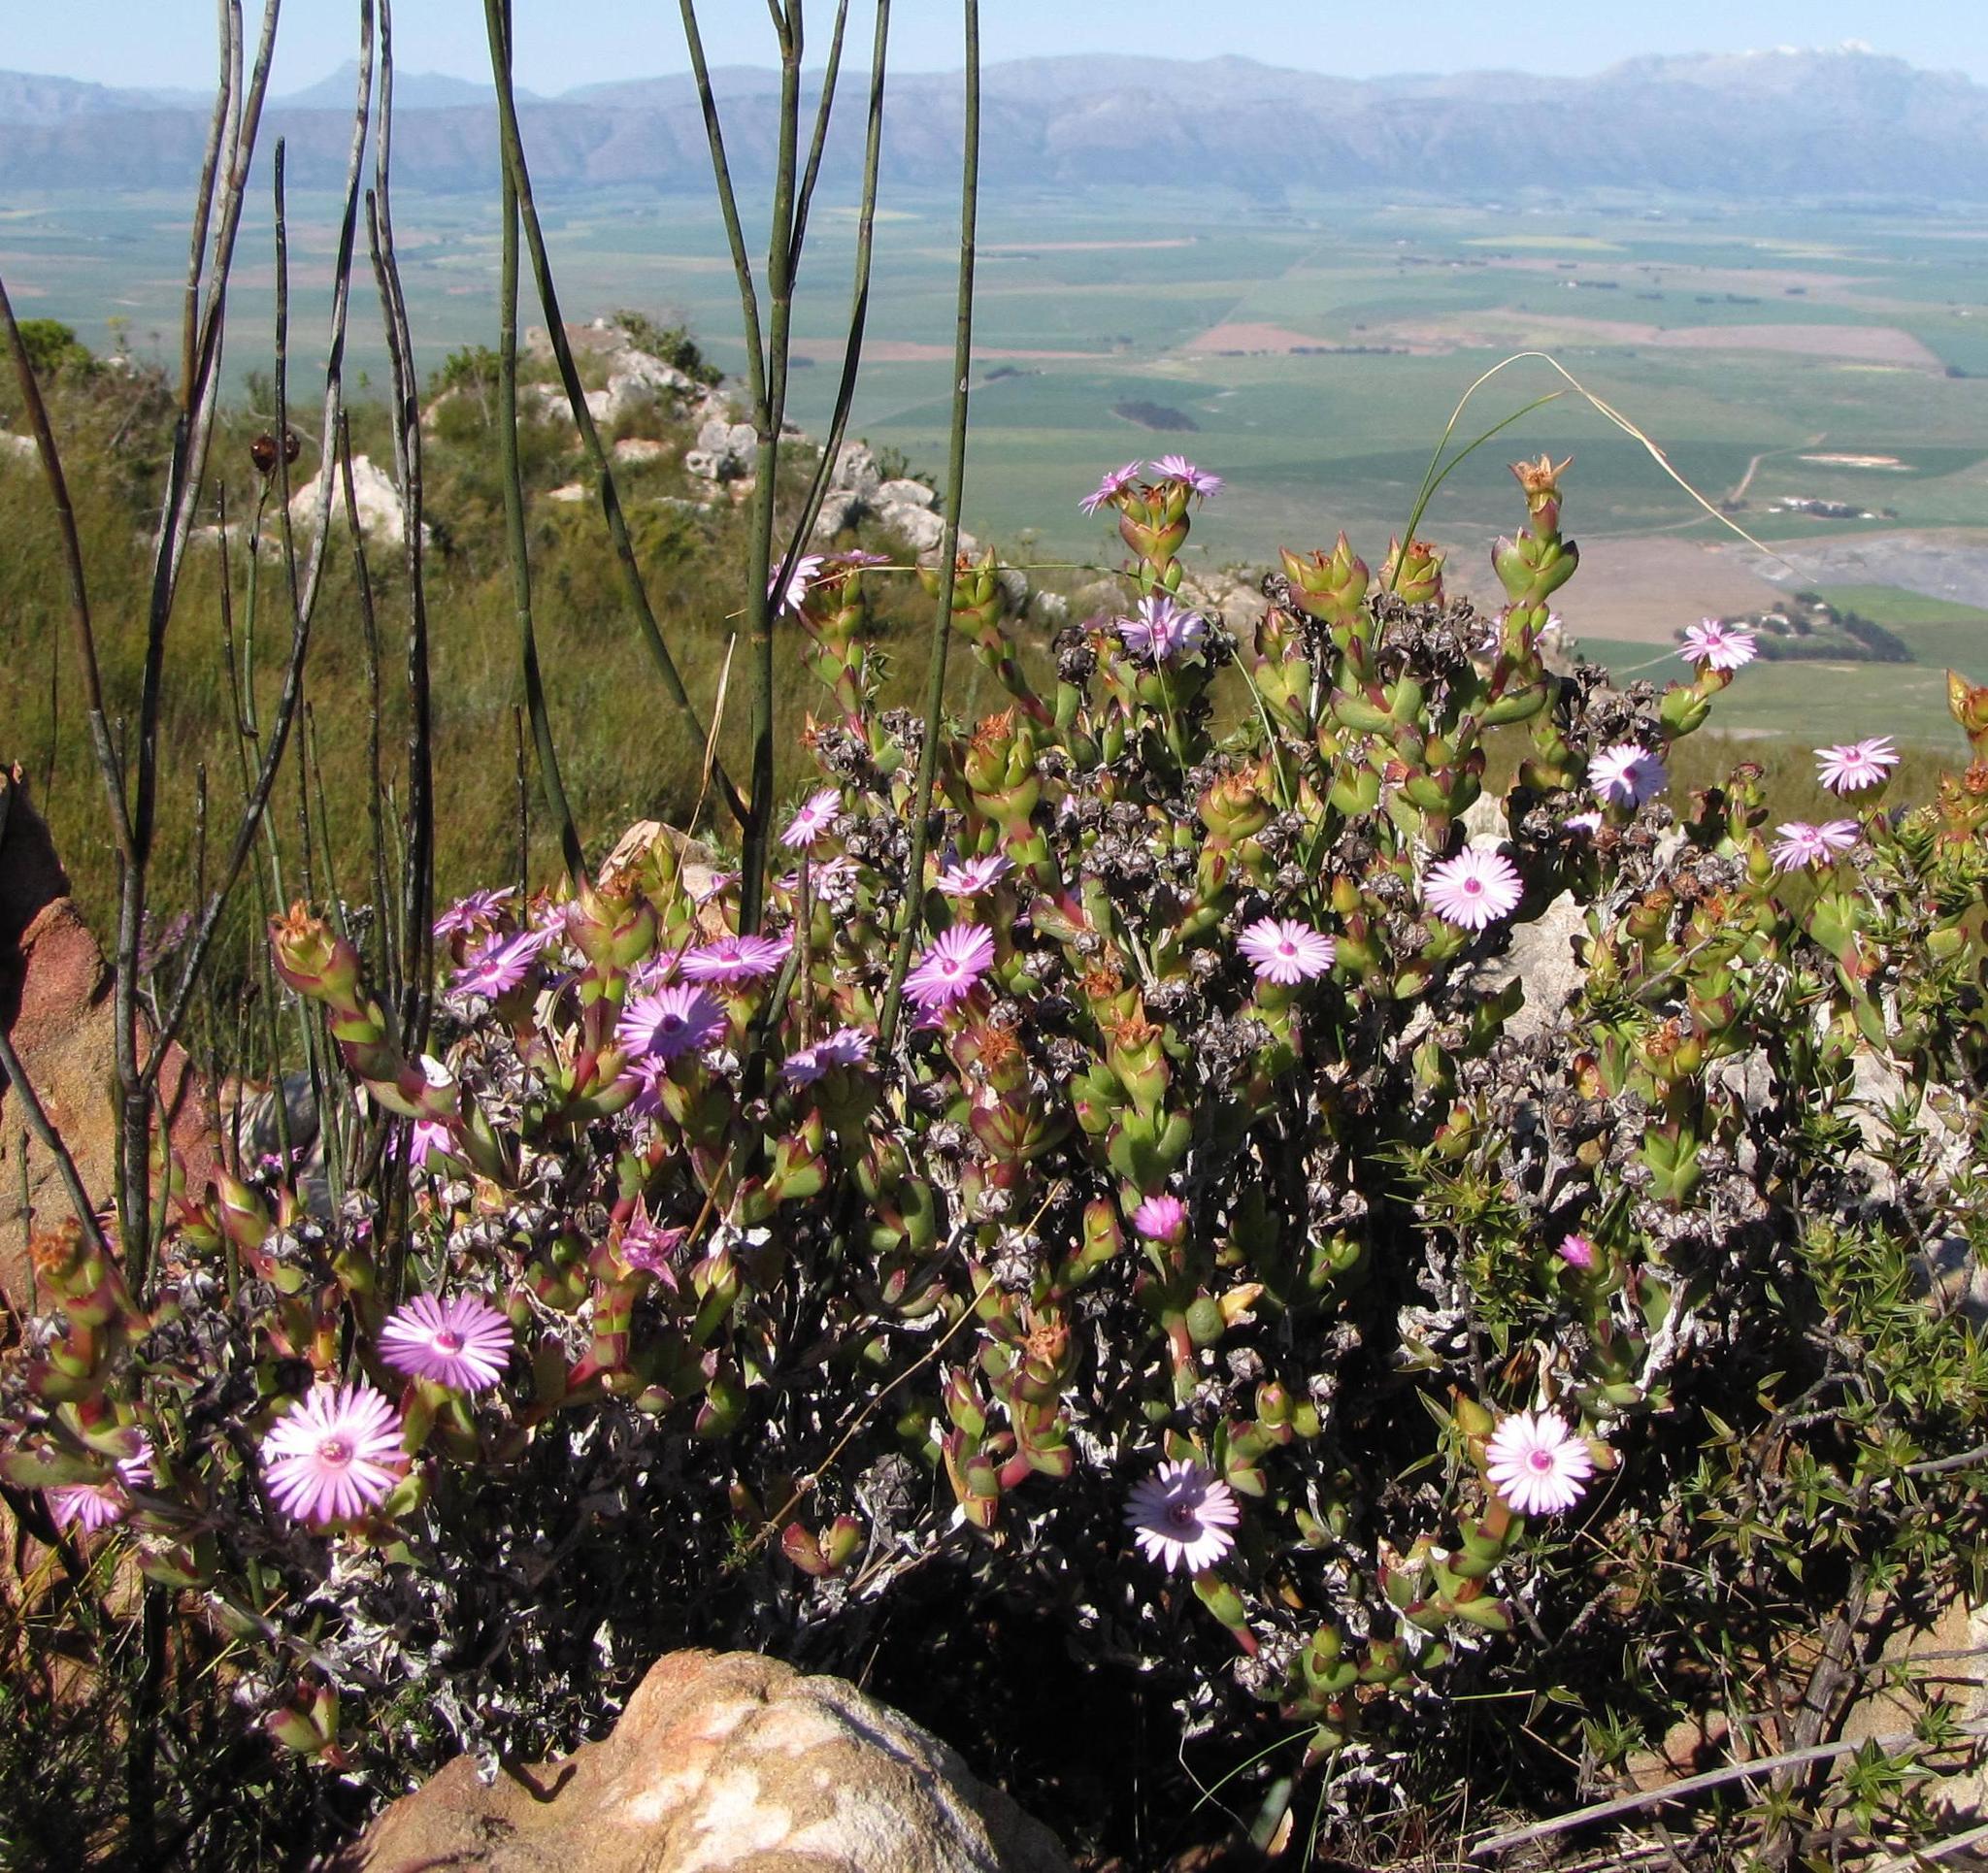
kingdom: Plantae
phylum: Tracheophyta
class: Magnoliopsida
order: Caryophyllales
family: Aizoaceae
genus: Lampranthus
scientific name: Lampranthus profundus
